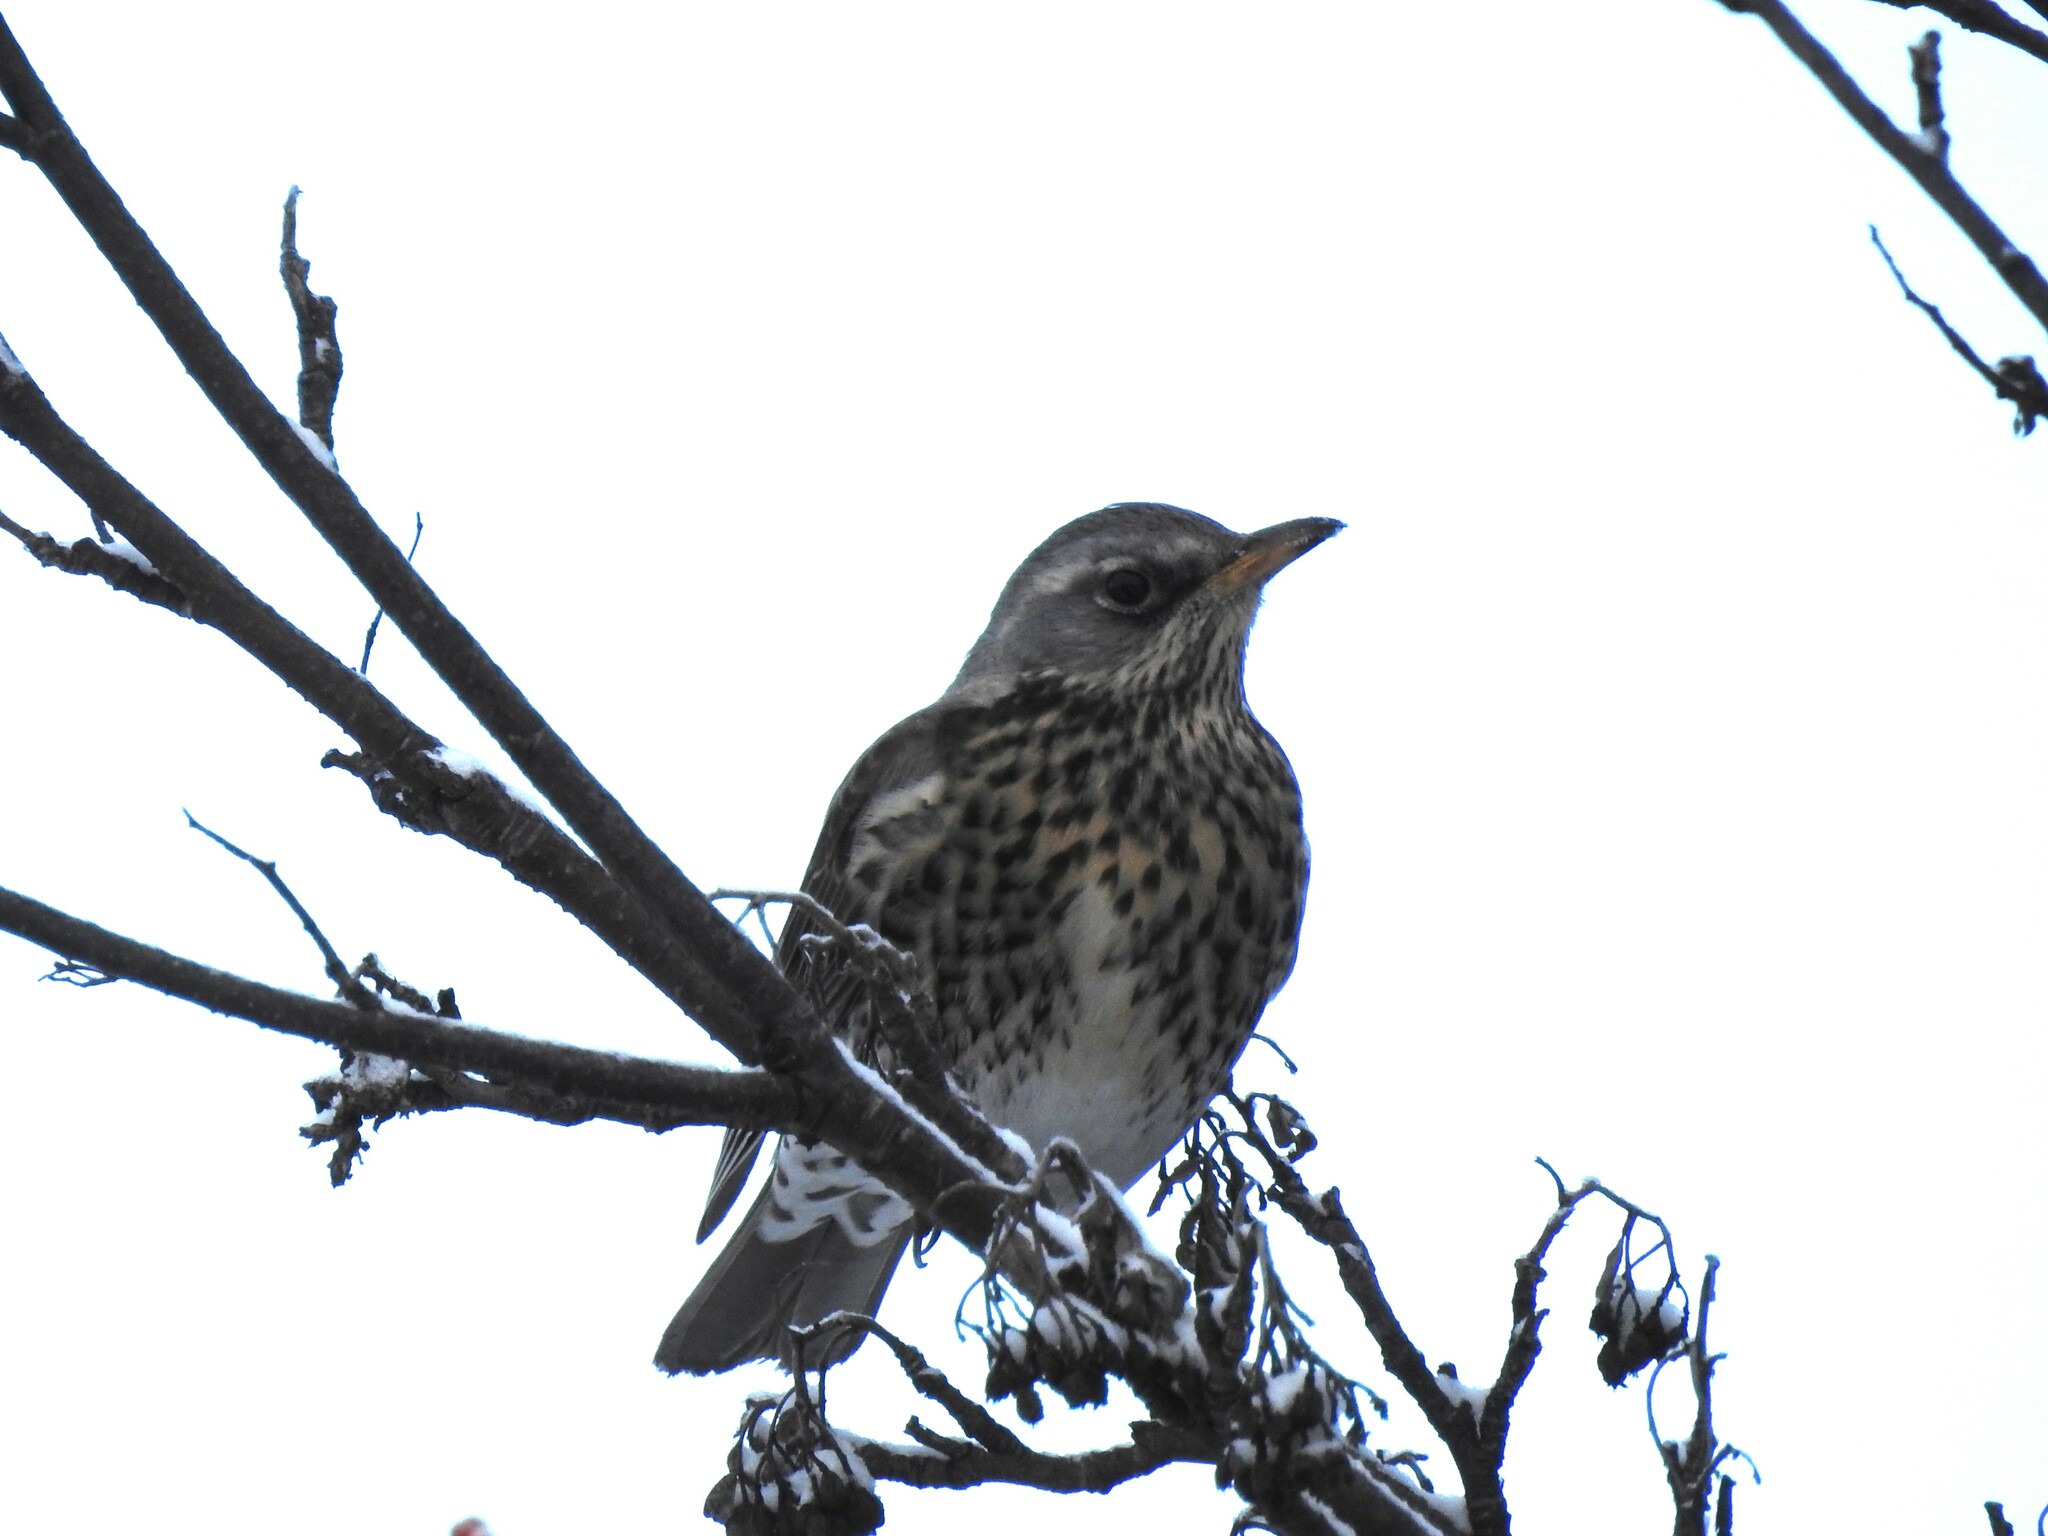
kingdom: Animalia
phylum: Chordata
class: Aves
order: Passeriformes
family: Turdidae
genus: Turdus
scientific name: Turdus pilaris
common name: Fieldfare
